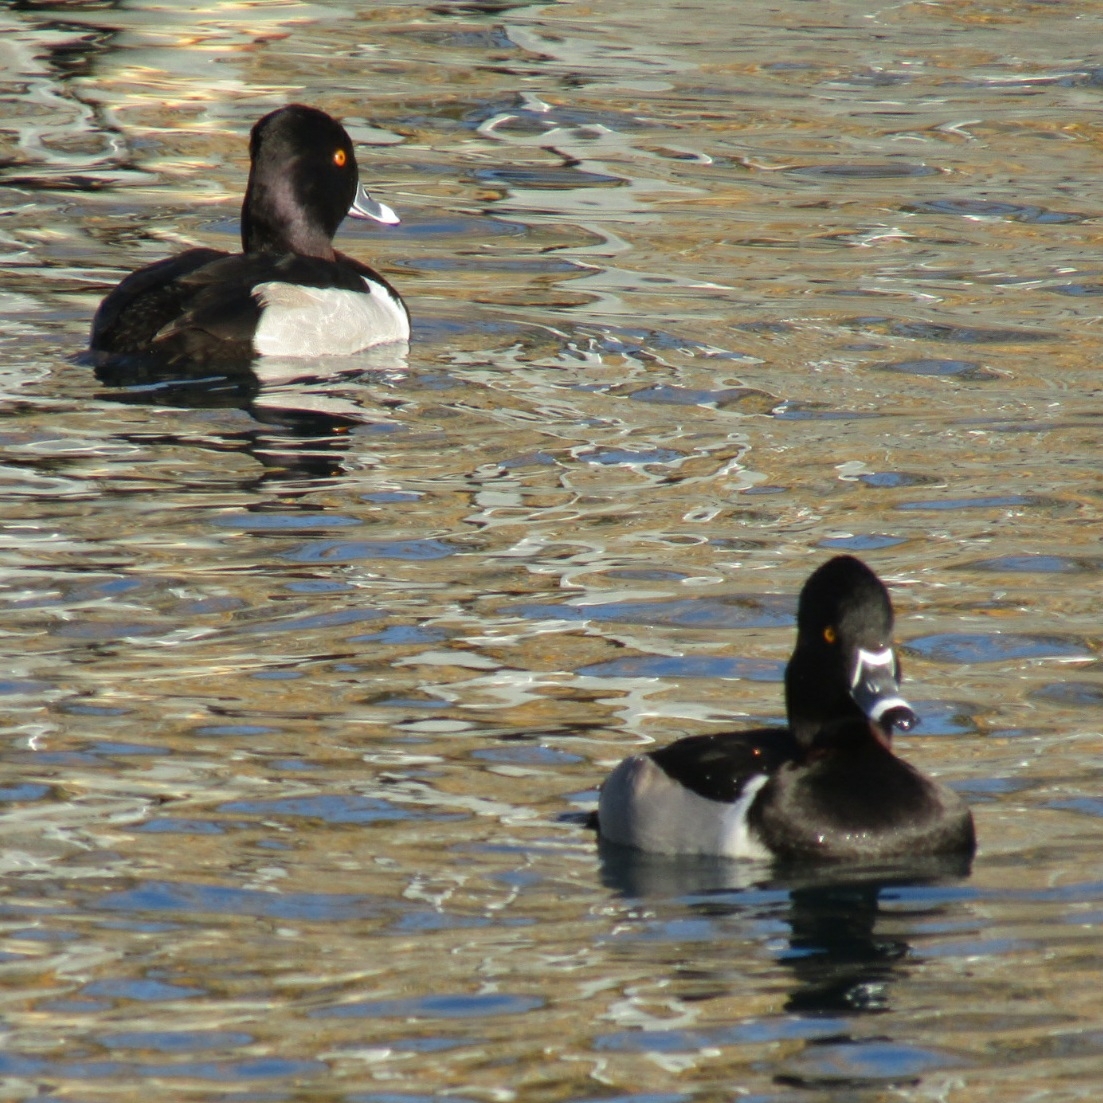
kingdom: Animalia
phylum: Chordata
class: Aves
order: Anseriformes
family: Anatidae
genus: Aythya
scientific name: Aythya collaris
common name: Ring-necked duck
